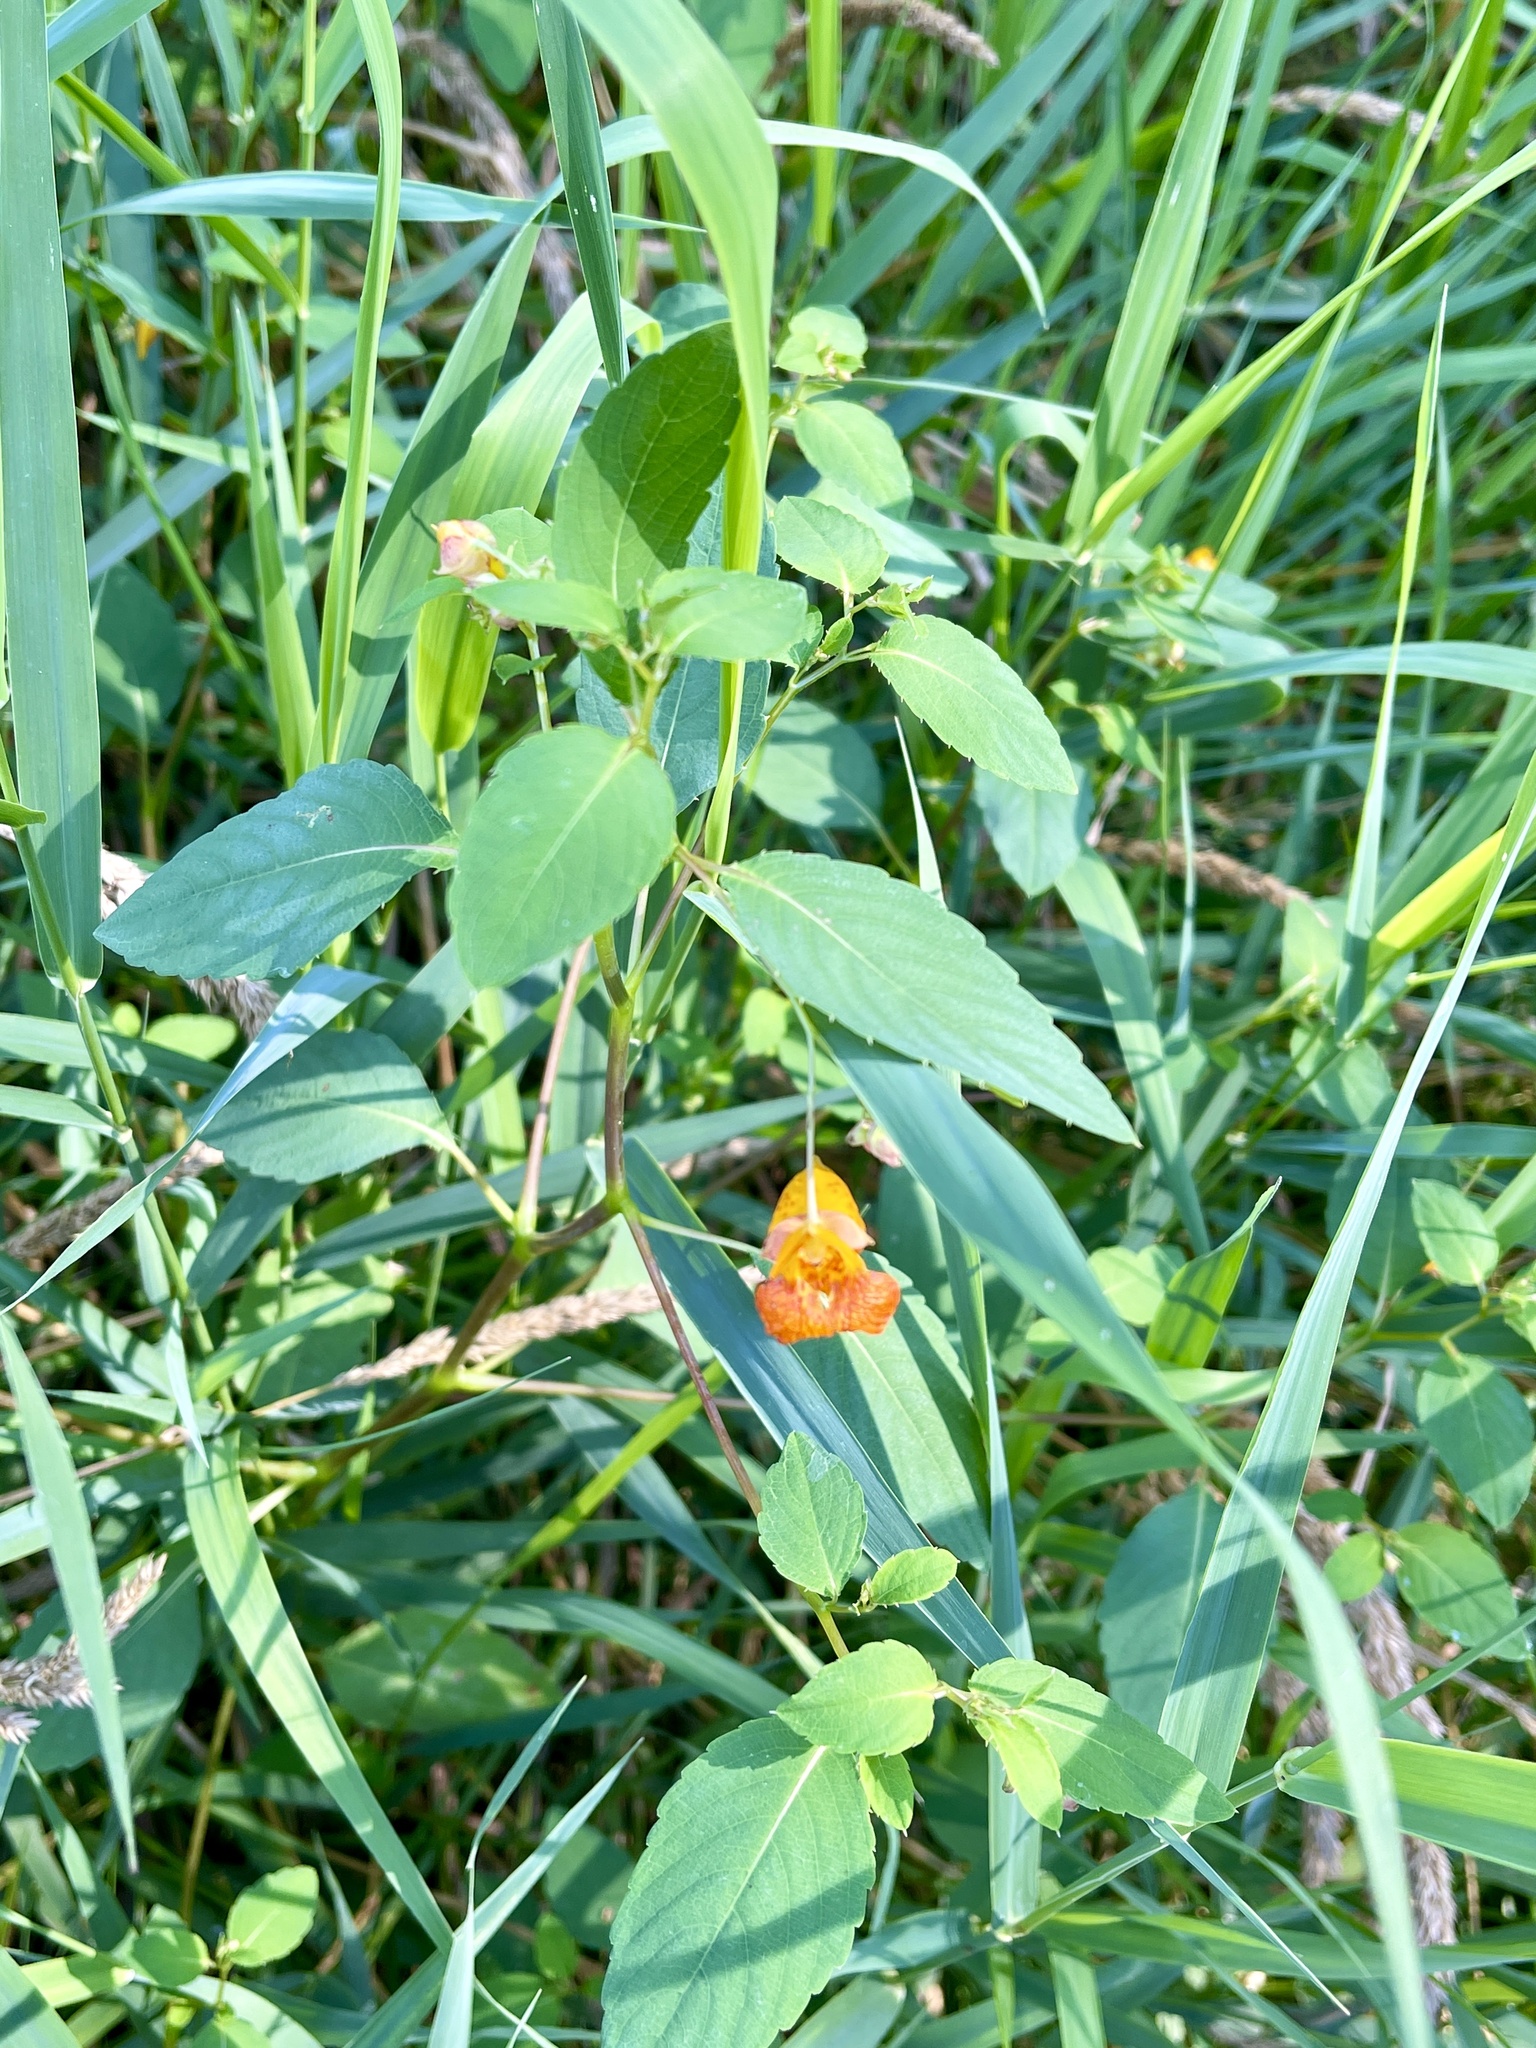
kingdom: Plantae
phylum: Tracheophyta
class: Magnoliopsida
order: Ericales
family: Balsaminaceae
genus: Impatiens
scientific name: Impatiens capensis
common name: Orange balsam
